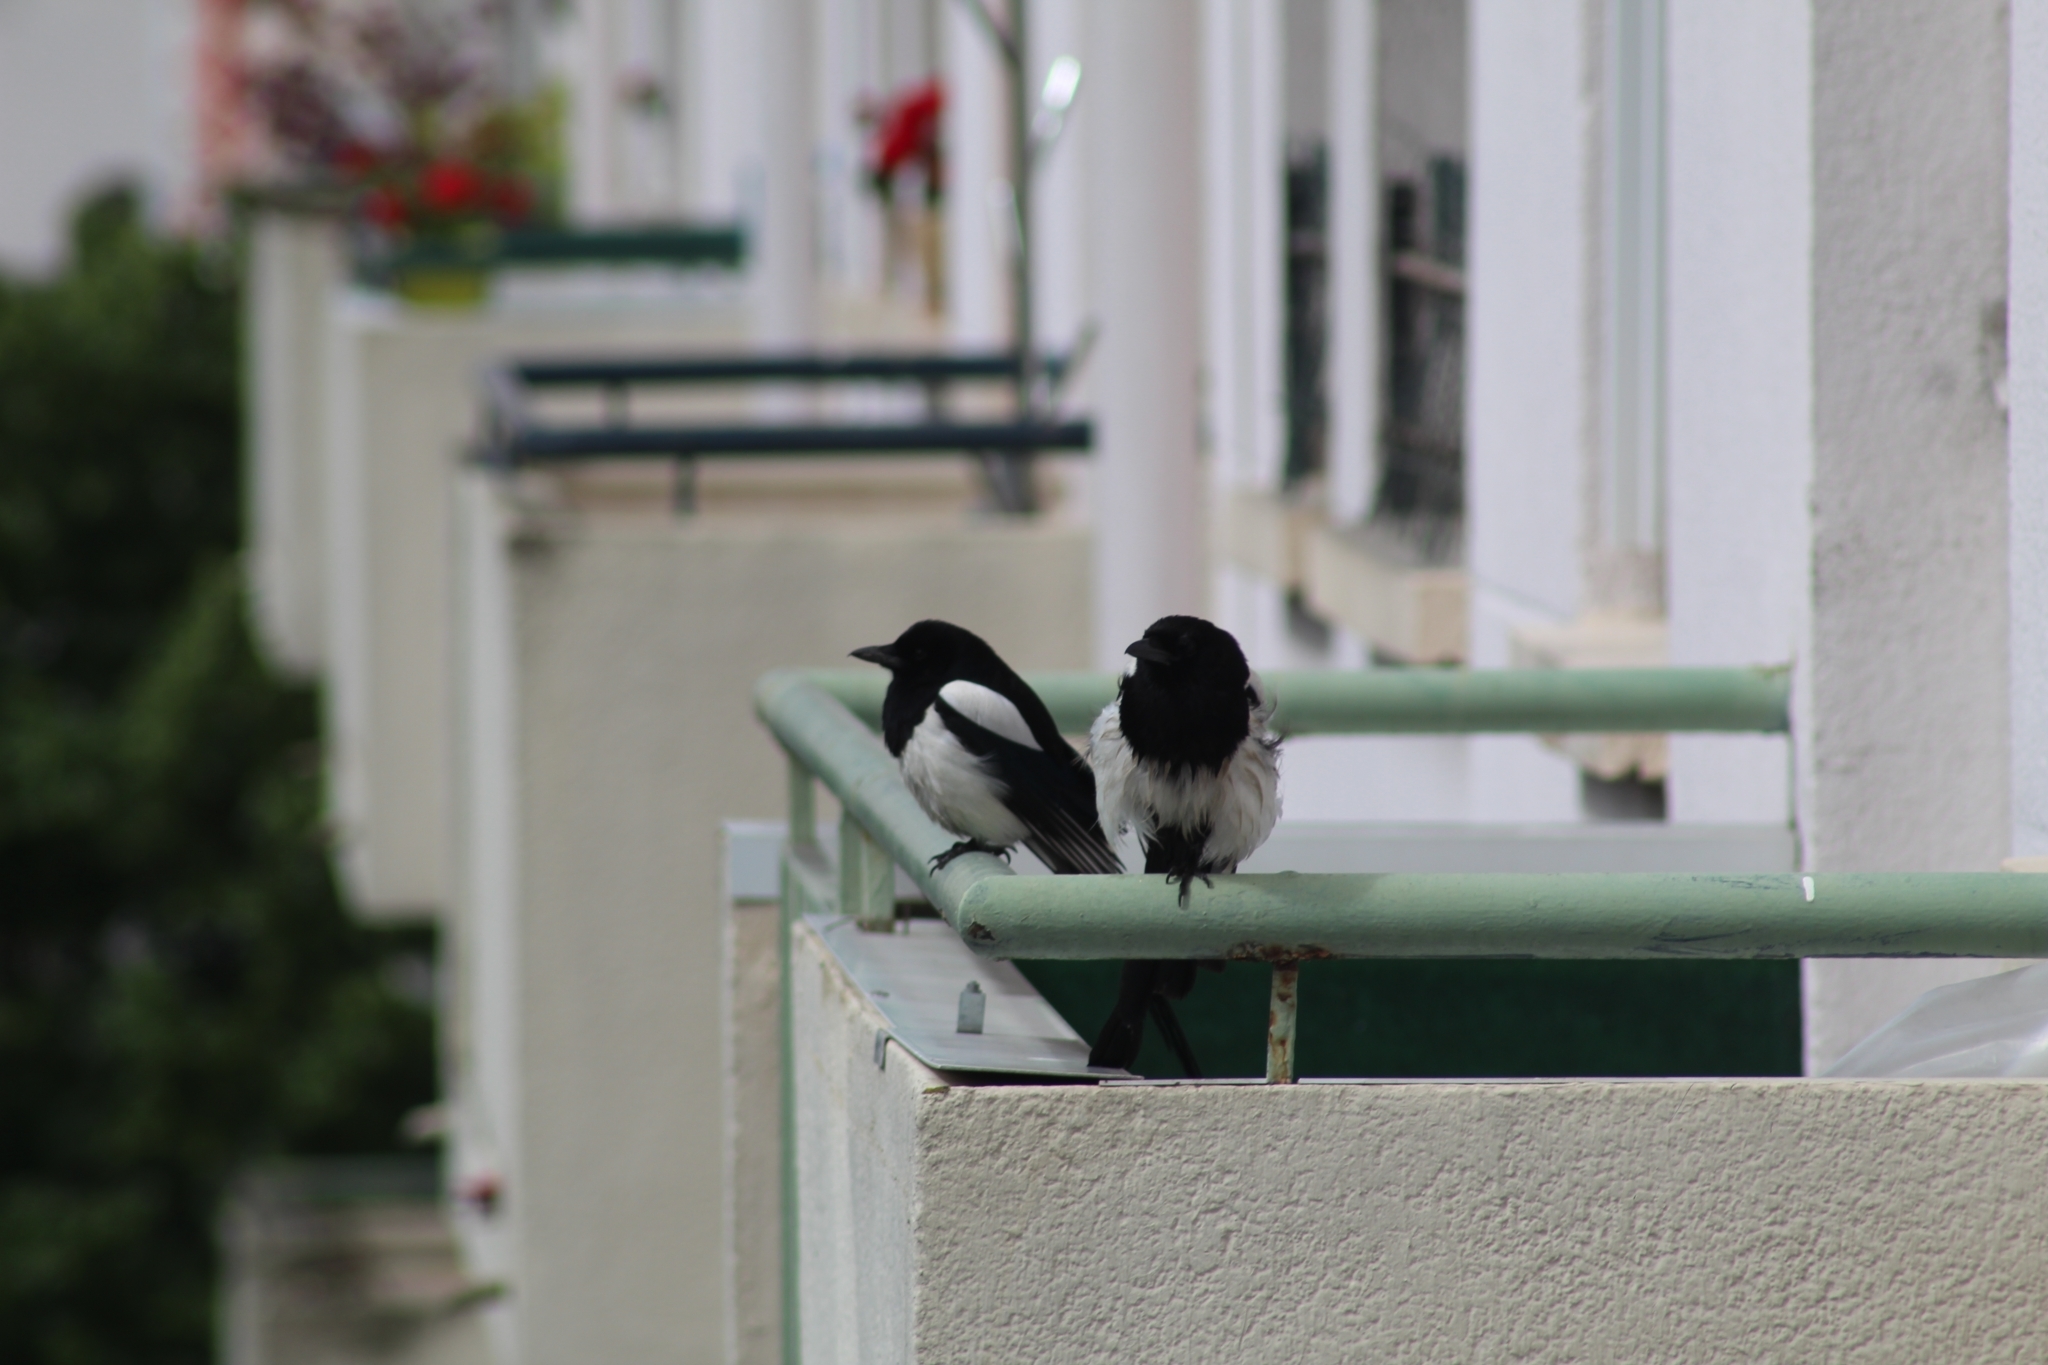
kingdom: Animalia
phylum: Chordata
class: Aves
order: Passeriformes
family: Corvidae
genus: Pica
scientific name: Pica pica
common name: Eurasian magpie
